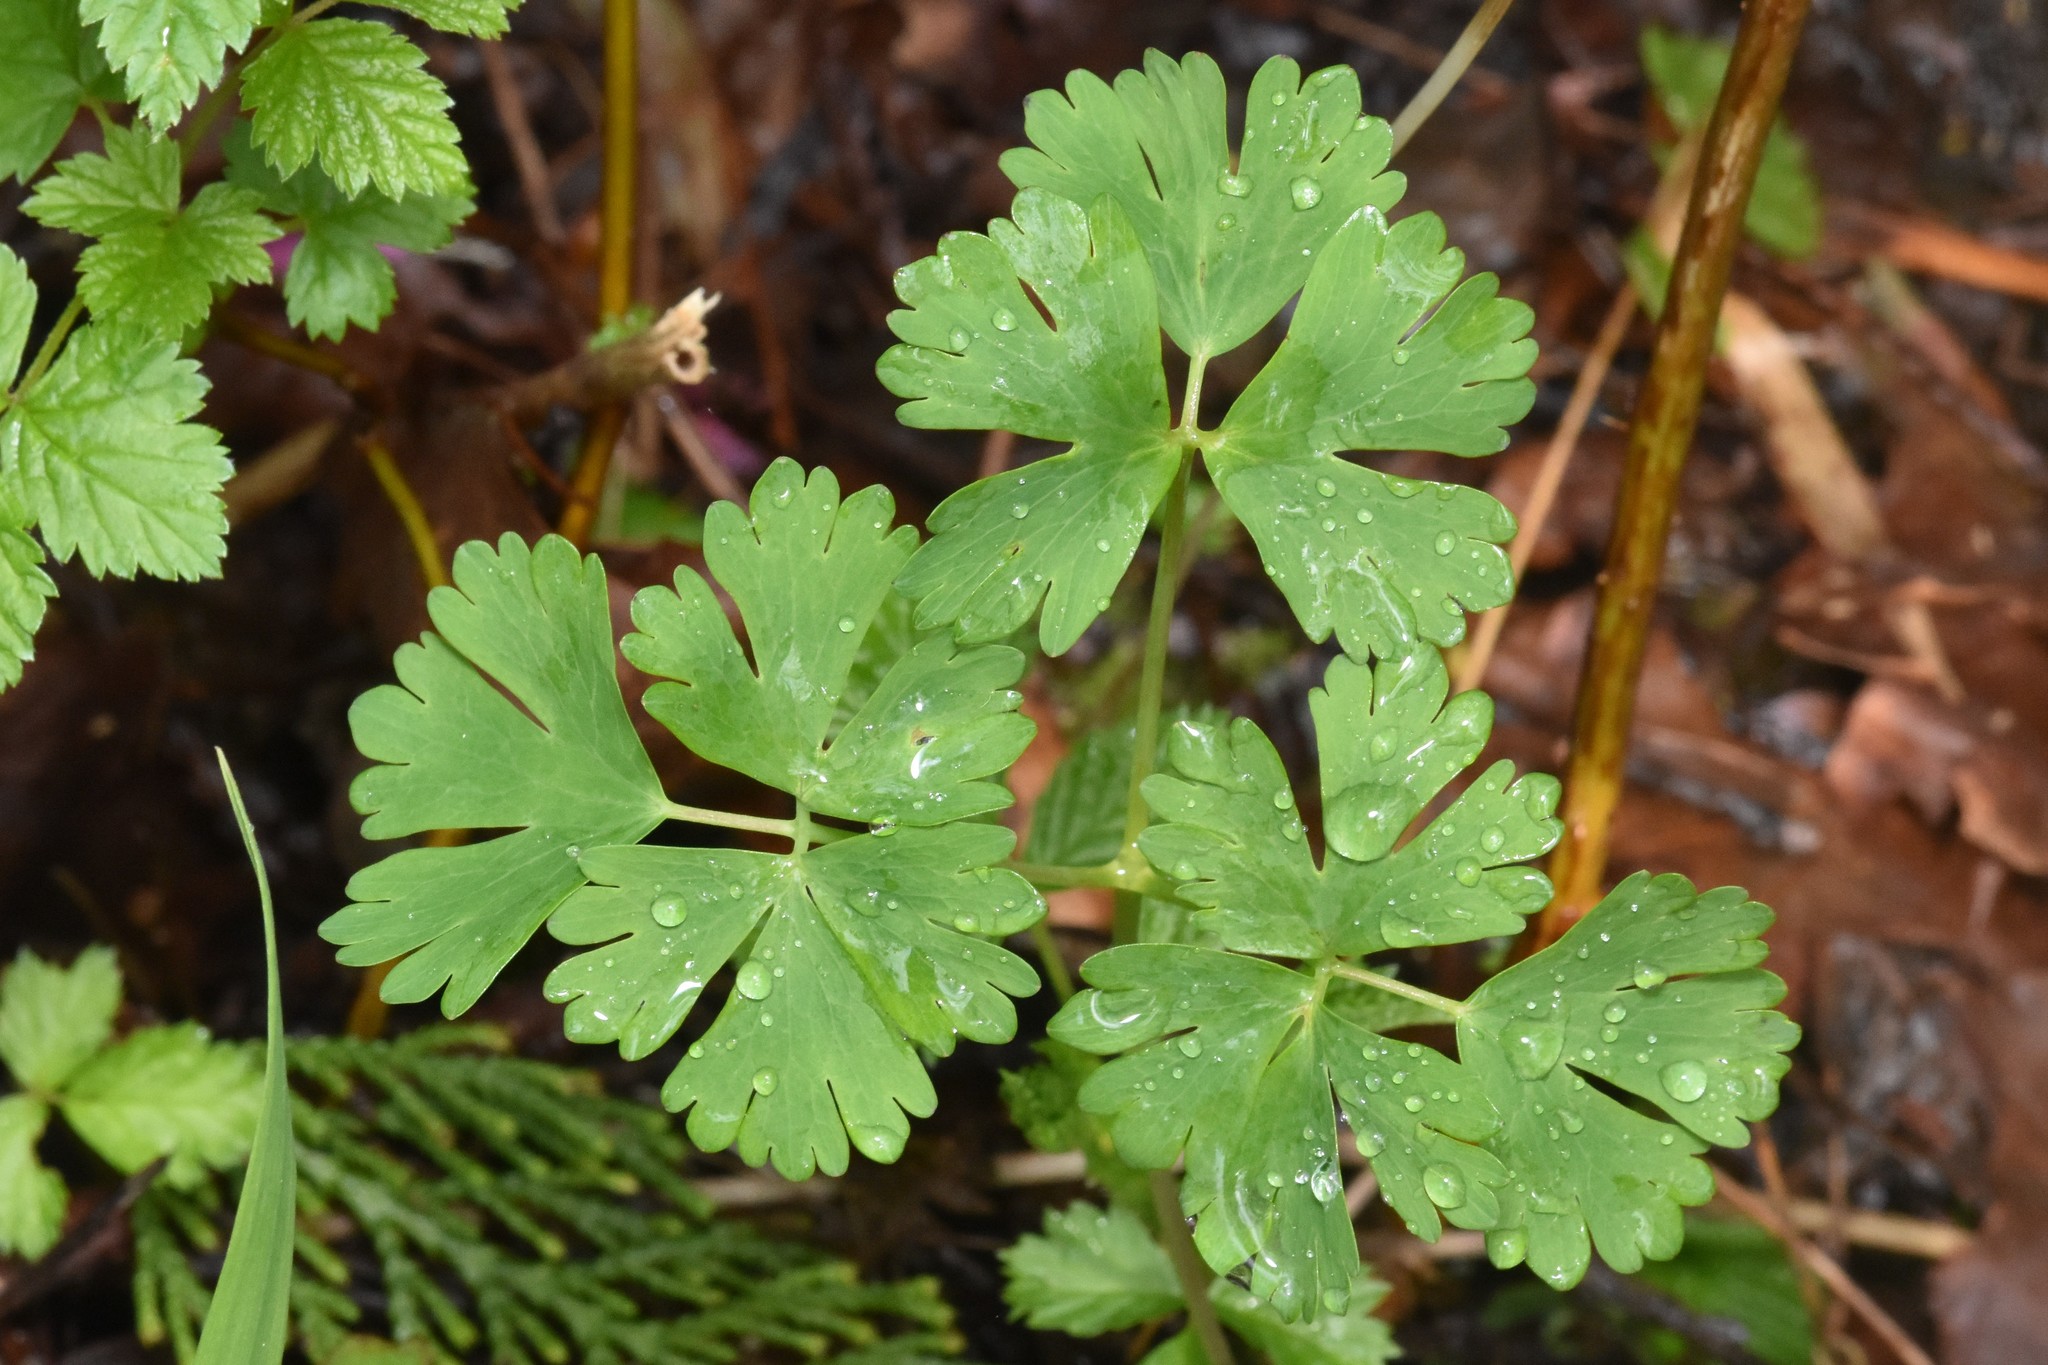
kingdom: Plantae
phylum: Tracheophyta
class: Magnoliopsida
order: Ranunculales
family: Ranunculaceae
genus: Aquilegia
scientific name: Aquilegia formosa
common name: Sitka columbine
